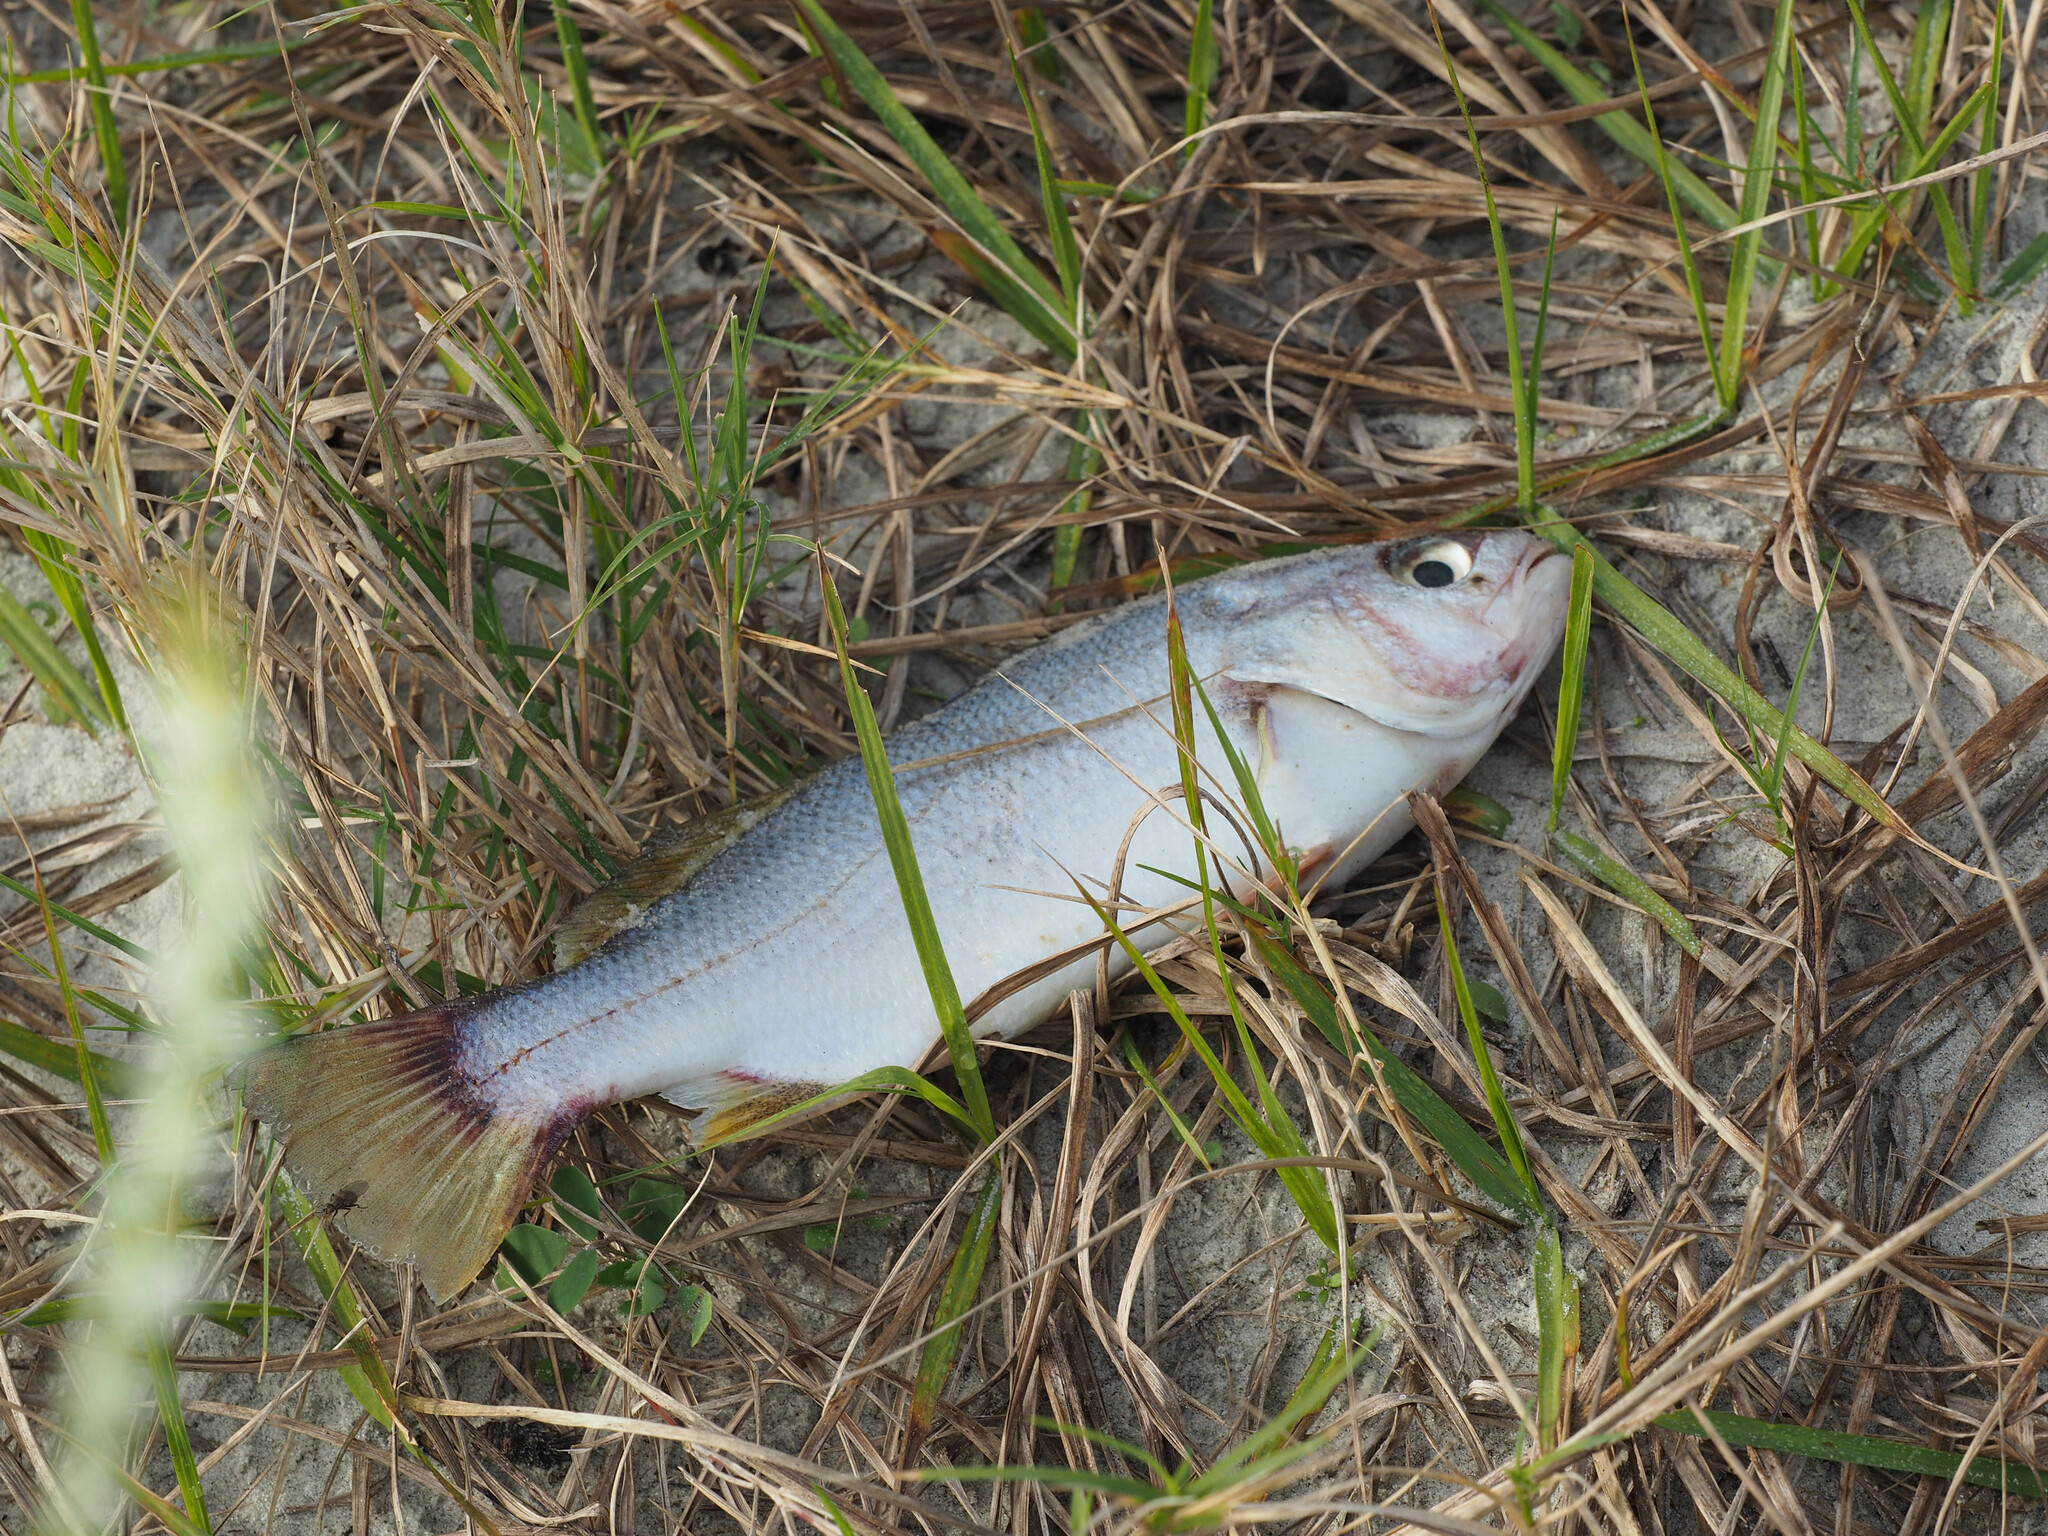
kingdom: Animalia
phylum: Chordata
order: Perciformes
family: Sciaenidae
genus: Bairdiella
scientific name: Bairdiella chrysoura
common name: Silver perch
